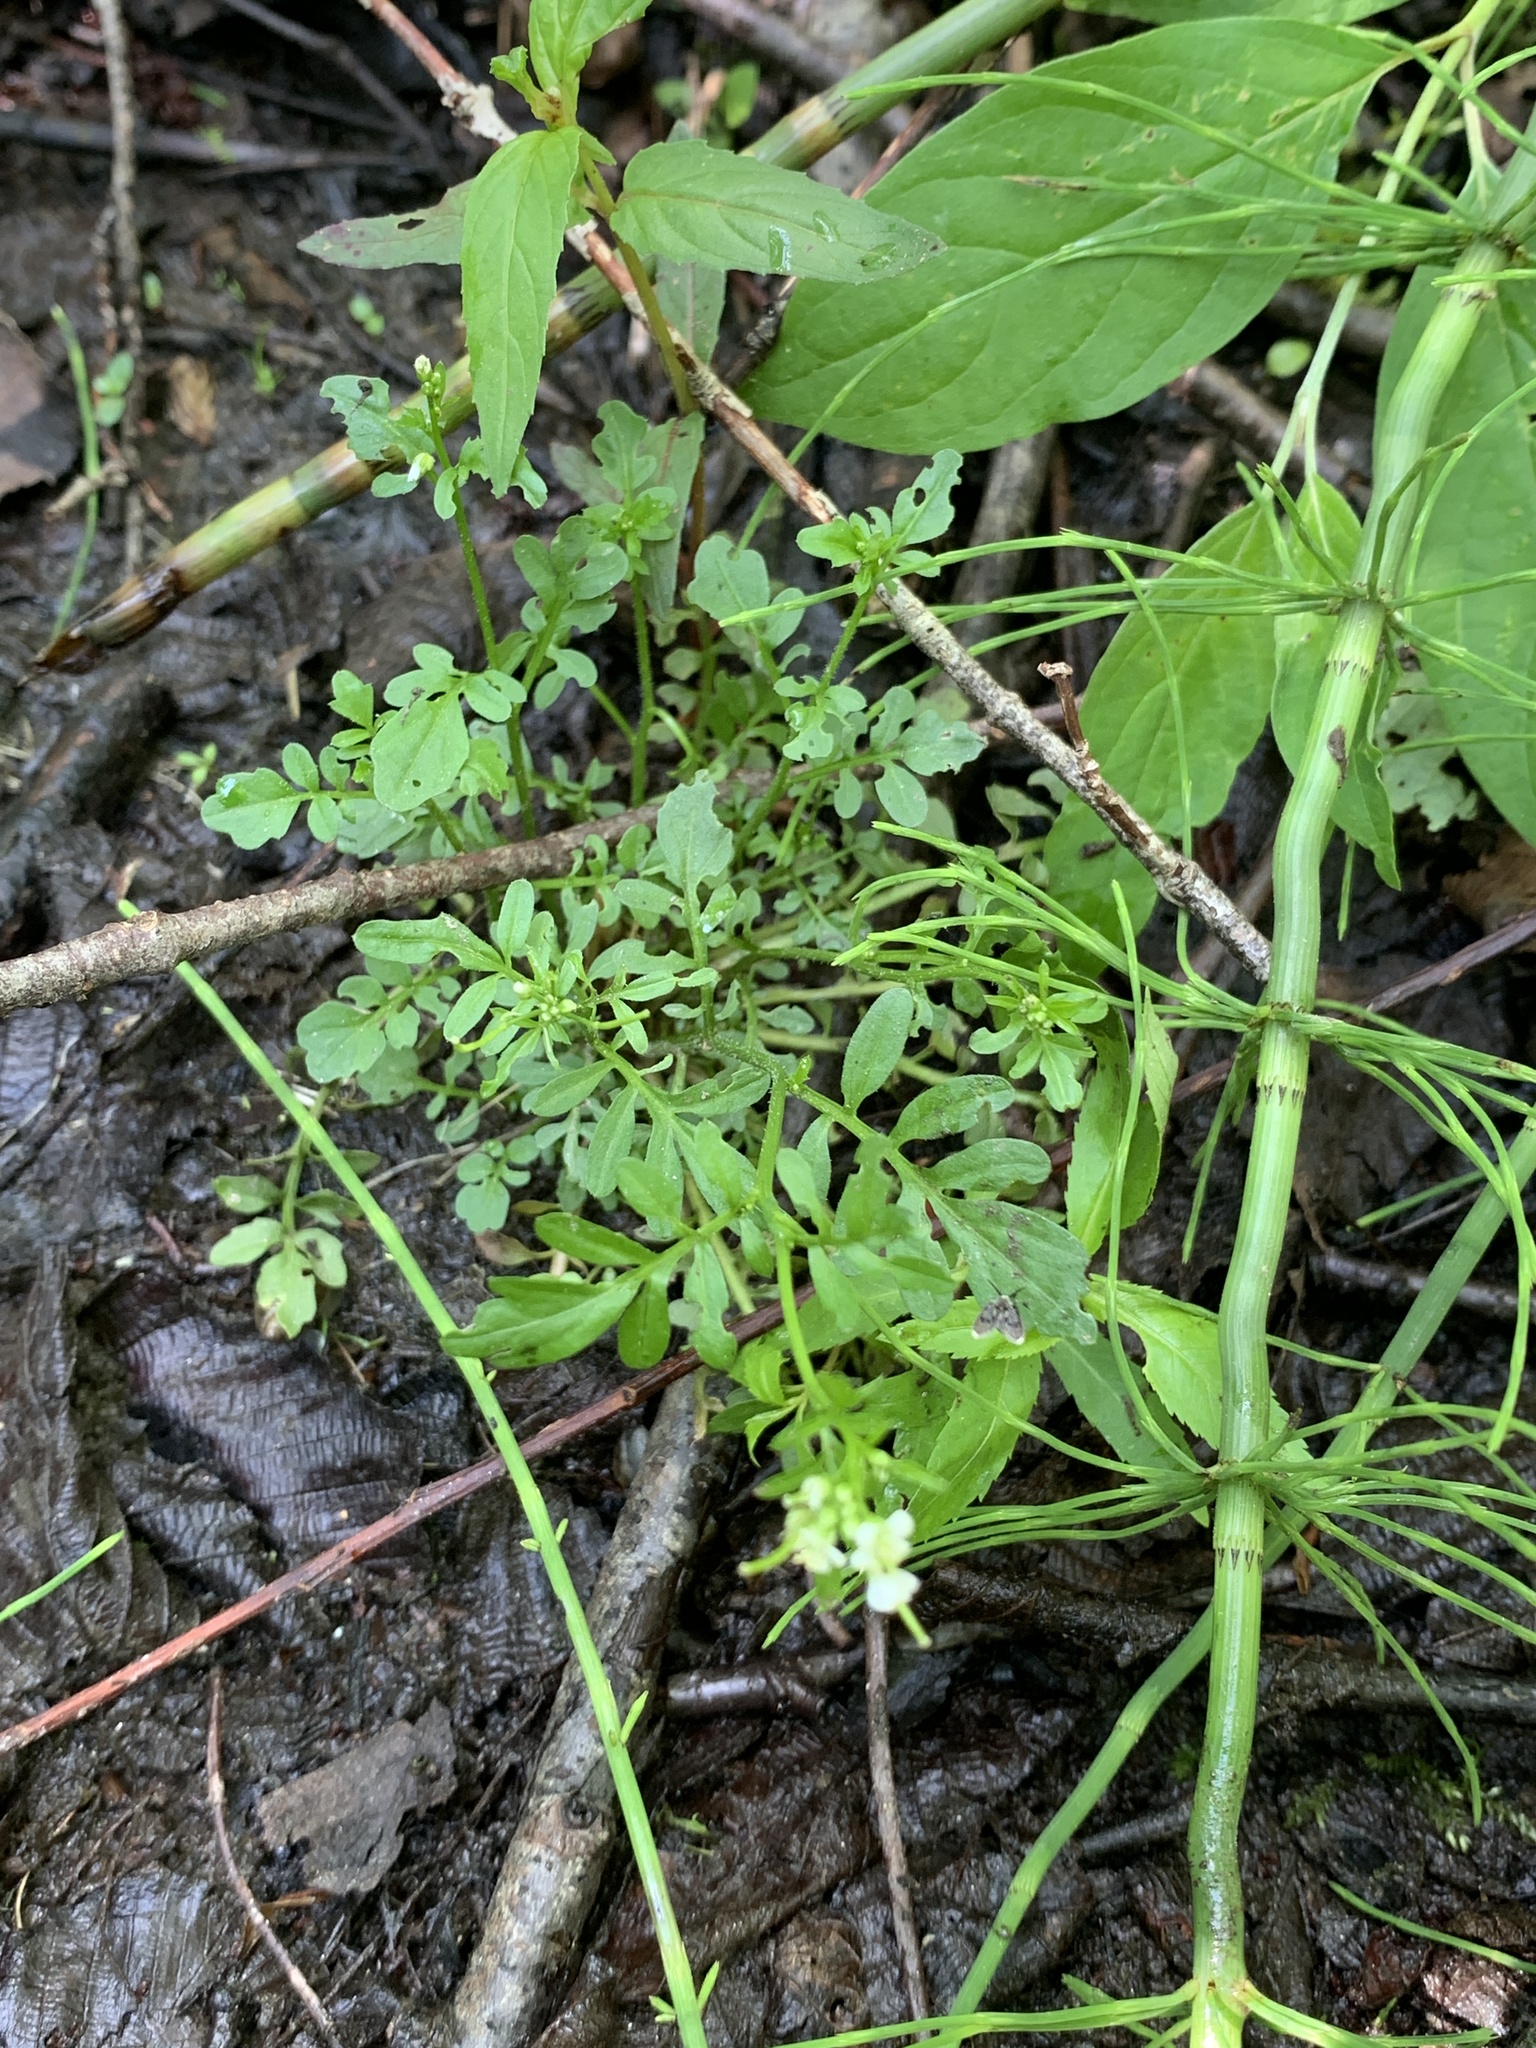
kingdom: Plantae
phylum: Tracheophyta
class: Magnoliopsida
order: Brassicales
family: Brassicaceae
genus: Cardamine
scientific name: Cardamine pensylvanica
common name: Pennsylvania bittercress
